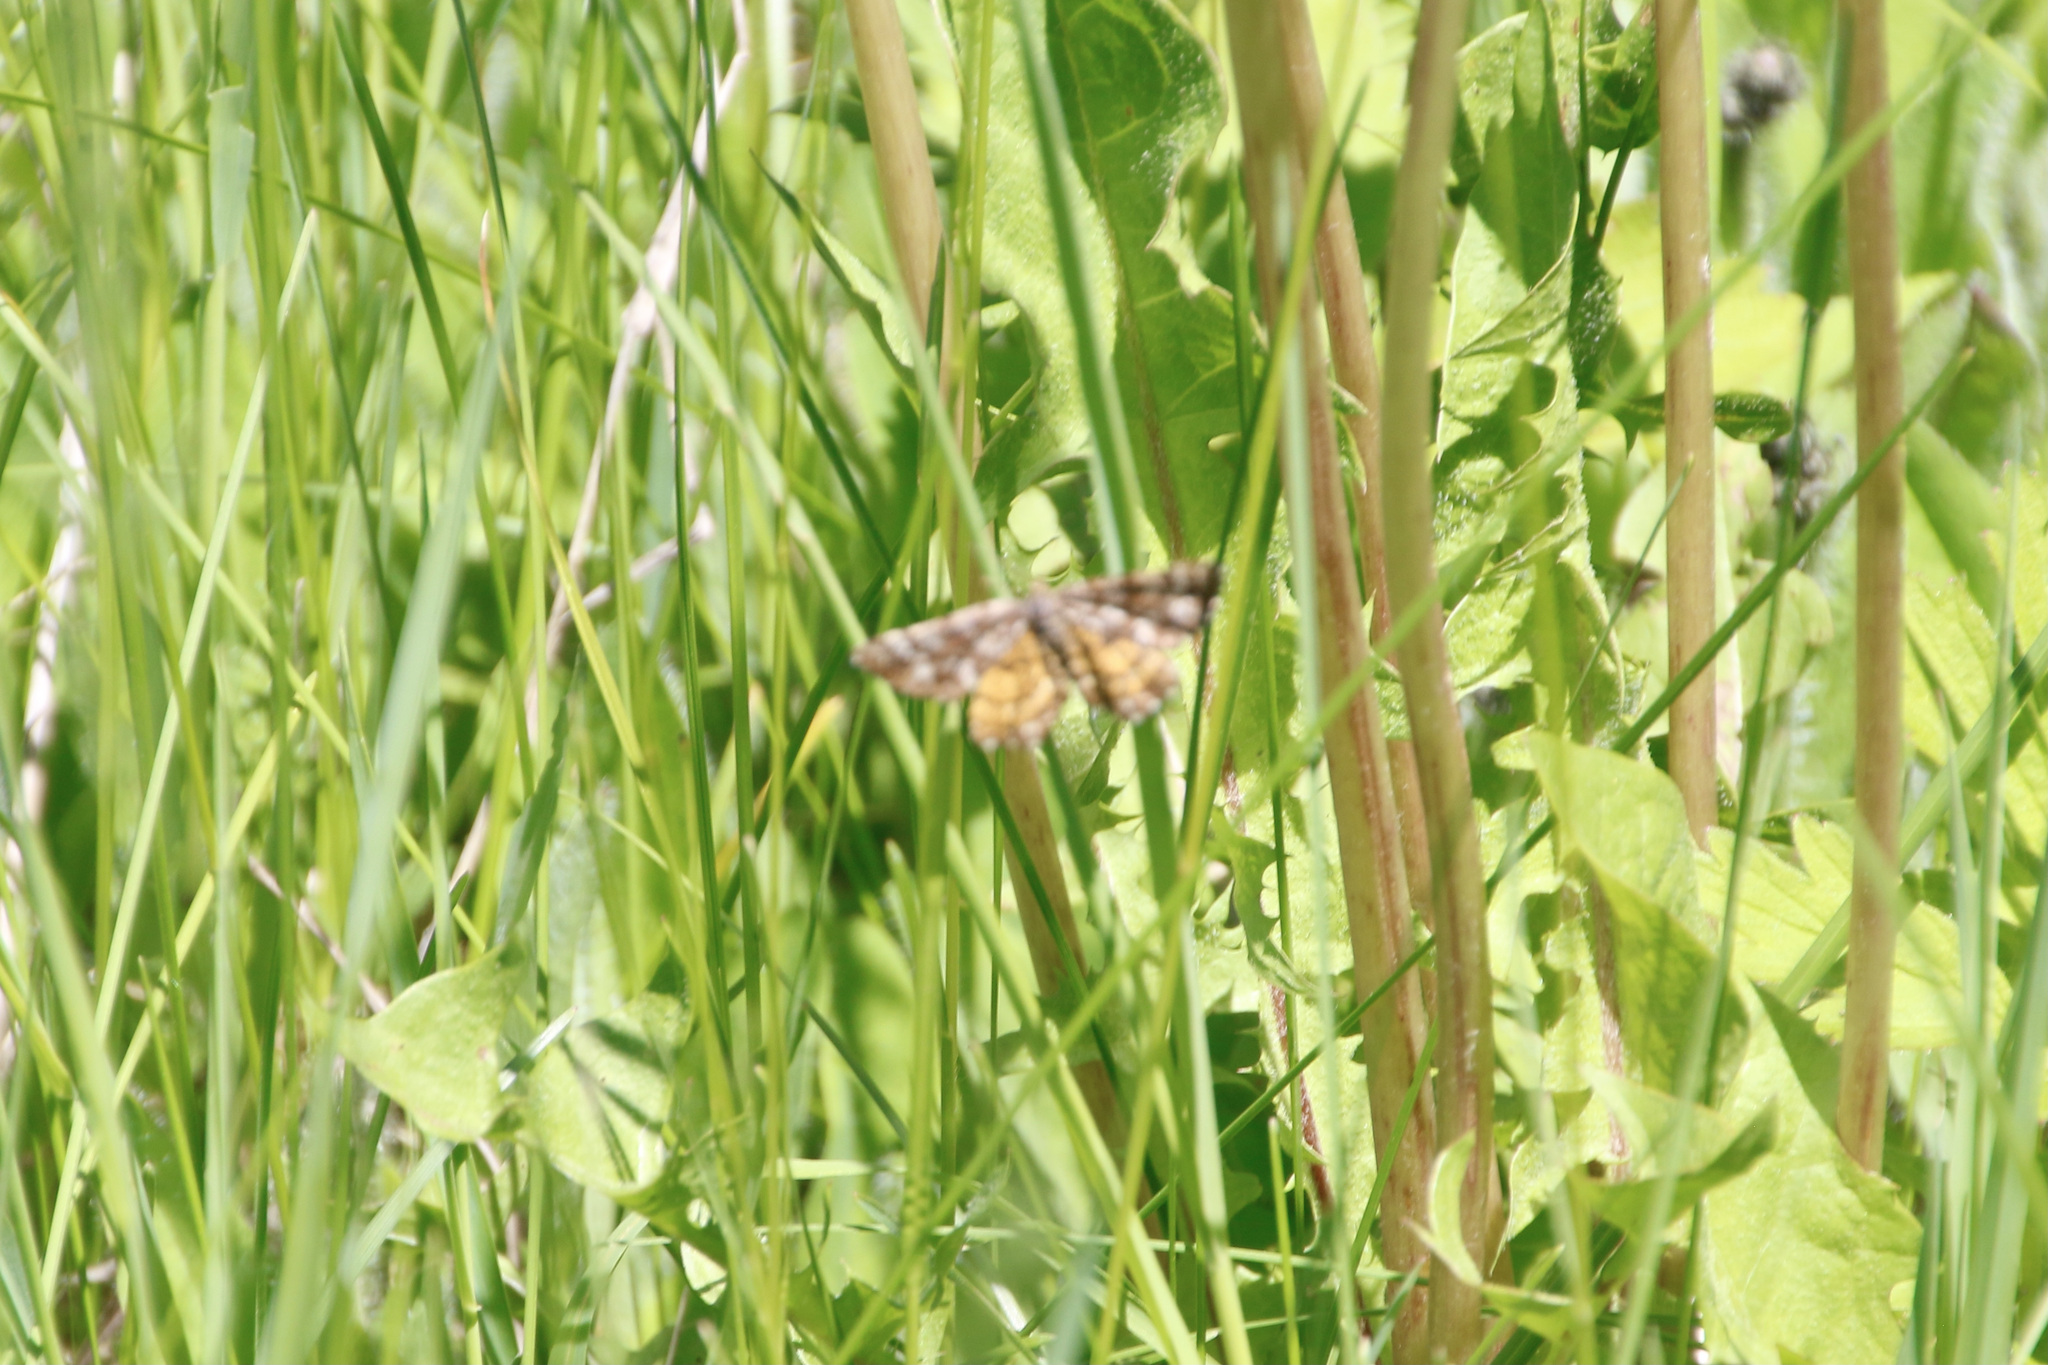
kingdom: Animalia
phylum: Arthropoda
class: Insecta
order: Lepidoptera
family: Geometridae
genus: Ematurga
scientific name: Ematurga amitaria
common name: Cranberry spanworm moth
